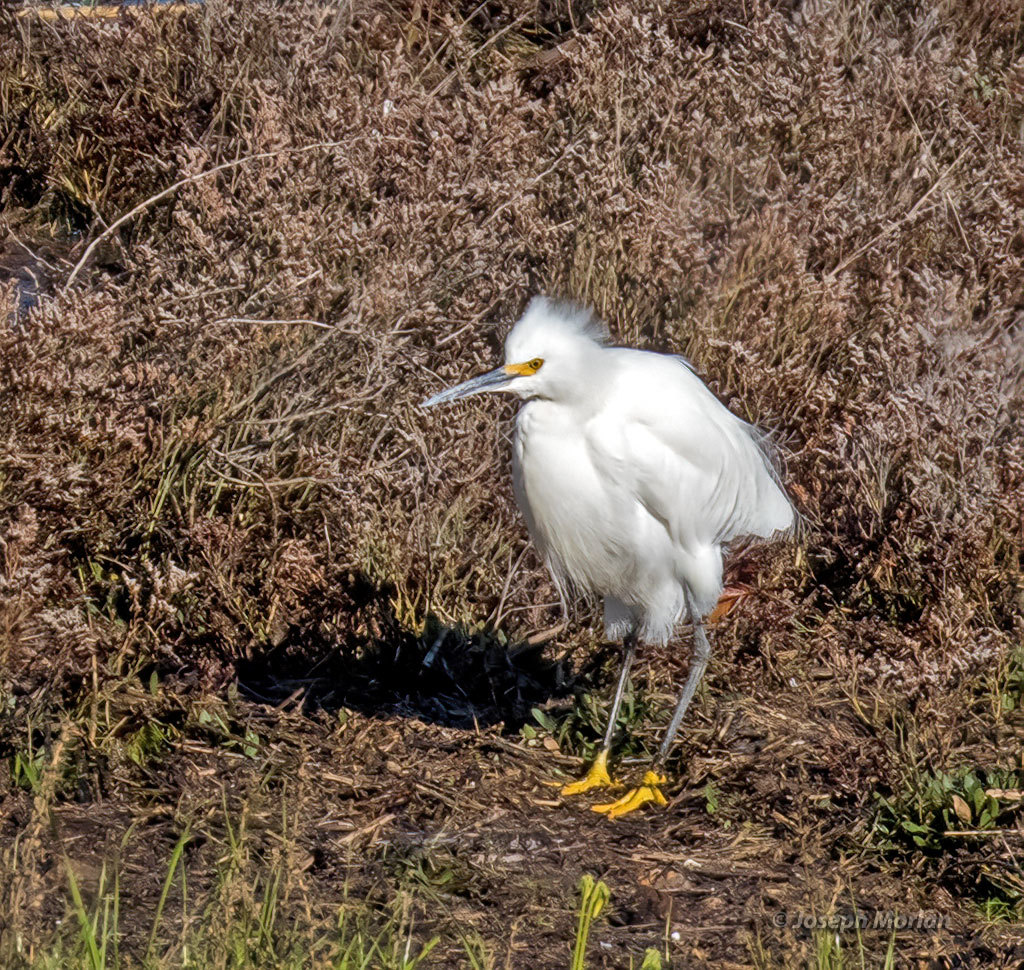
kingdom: Animalia
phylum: Chordata
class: Aves
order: Pelecaniformes
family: Ardeidae
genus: Egretta
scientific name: Egretta thula
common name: Snowy egret
